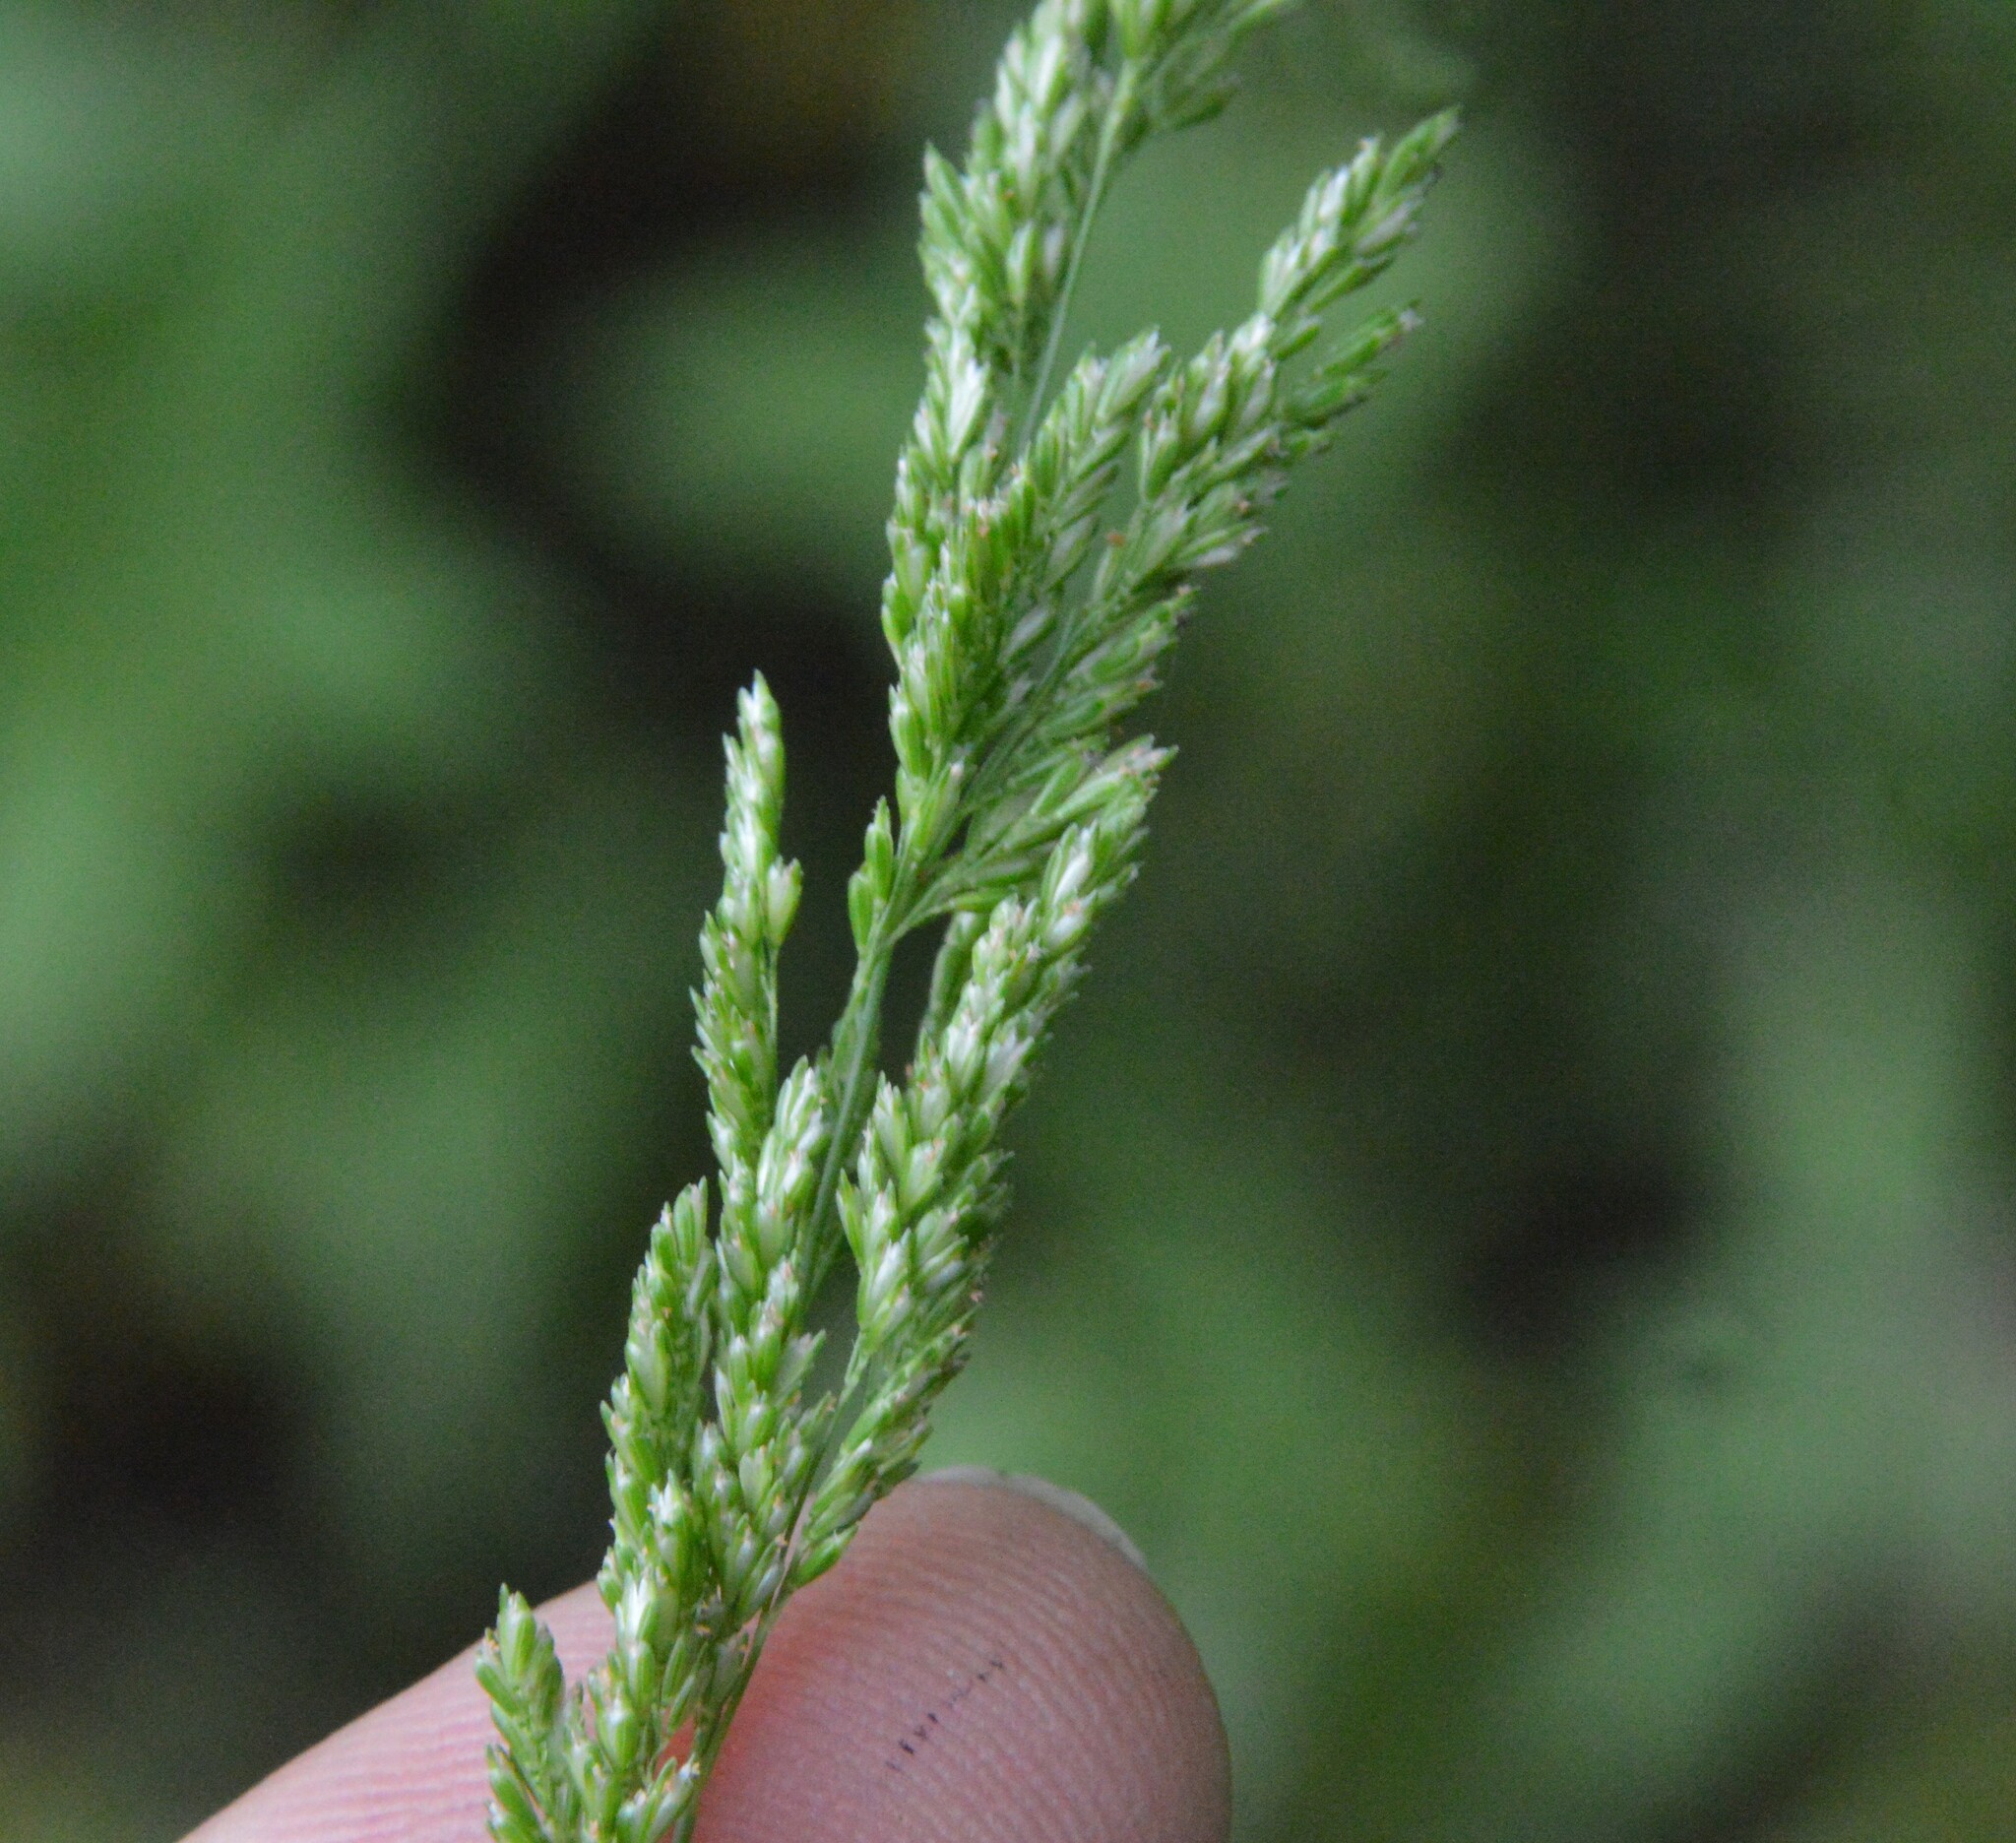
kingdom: Plantae
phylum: Tracheophyta
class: Liliopsida
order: Poales
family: Poaceae
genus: Sphenopholis
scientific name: Sphenopholis obtusata
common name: Prairie grass
